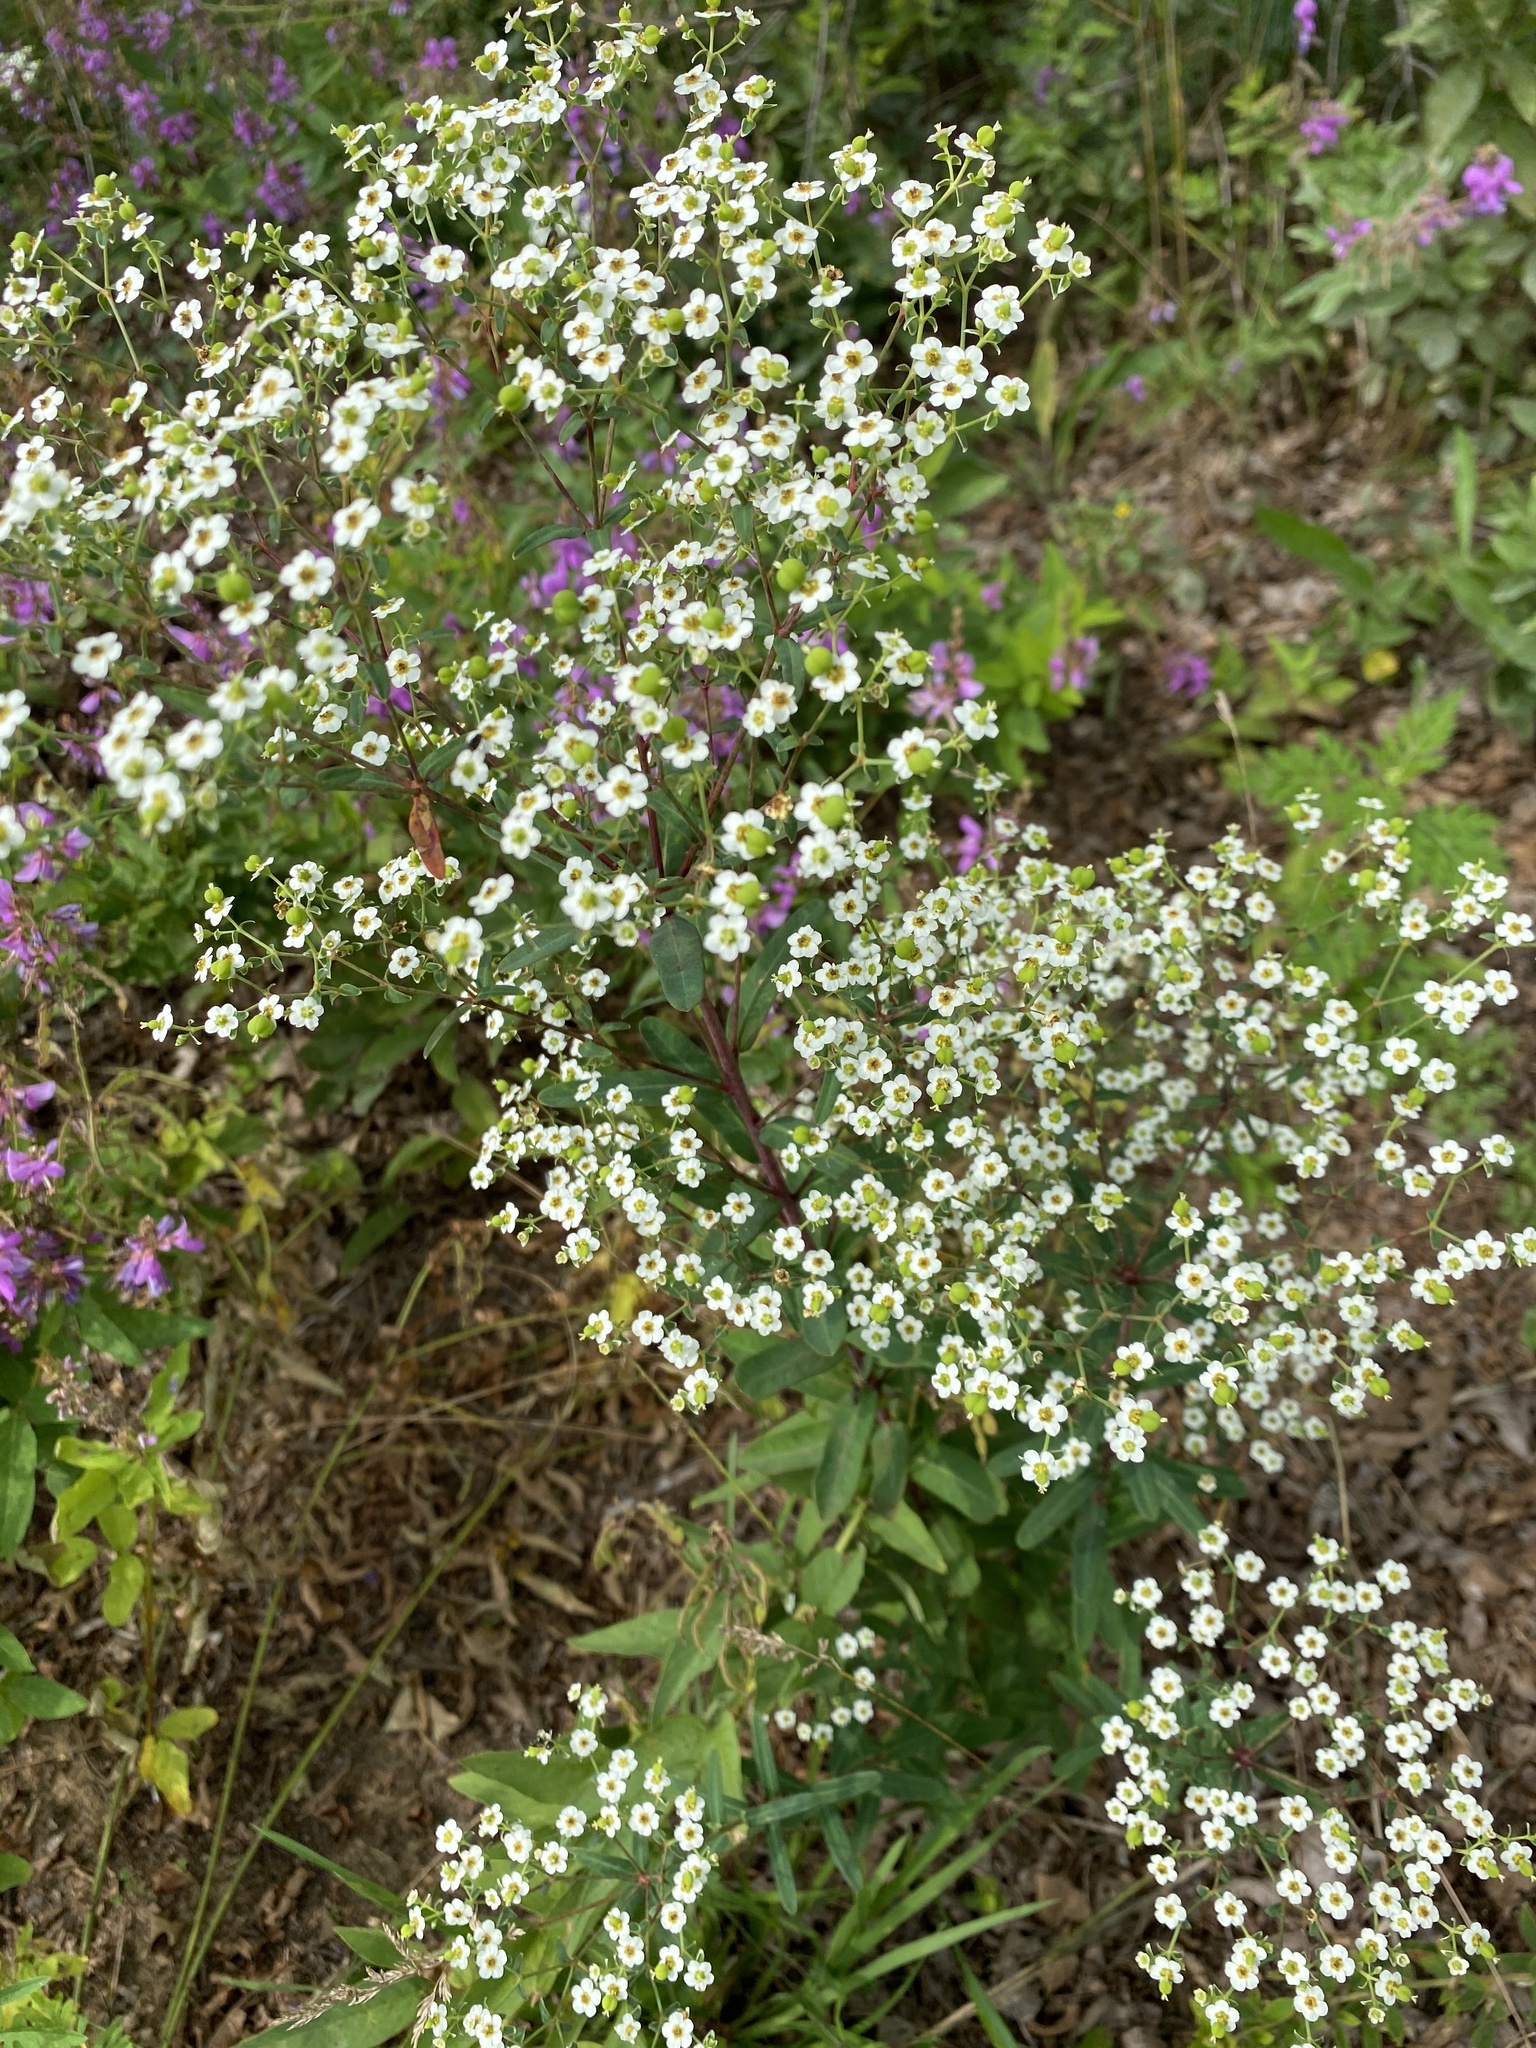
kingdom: Plantae
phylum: Tracheophyta
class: Magnoliopsida
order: Malpighiales
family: Euphorbiaceae
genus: Euphorbia
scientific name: Euphorbia corollata
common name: Flowering spurge
